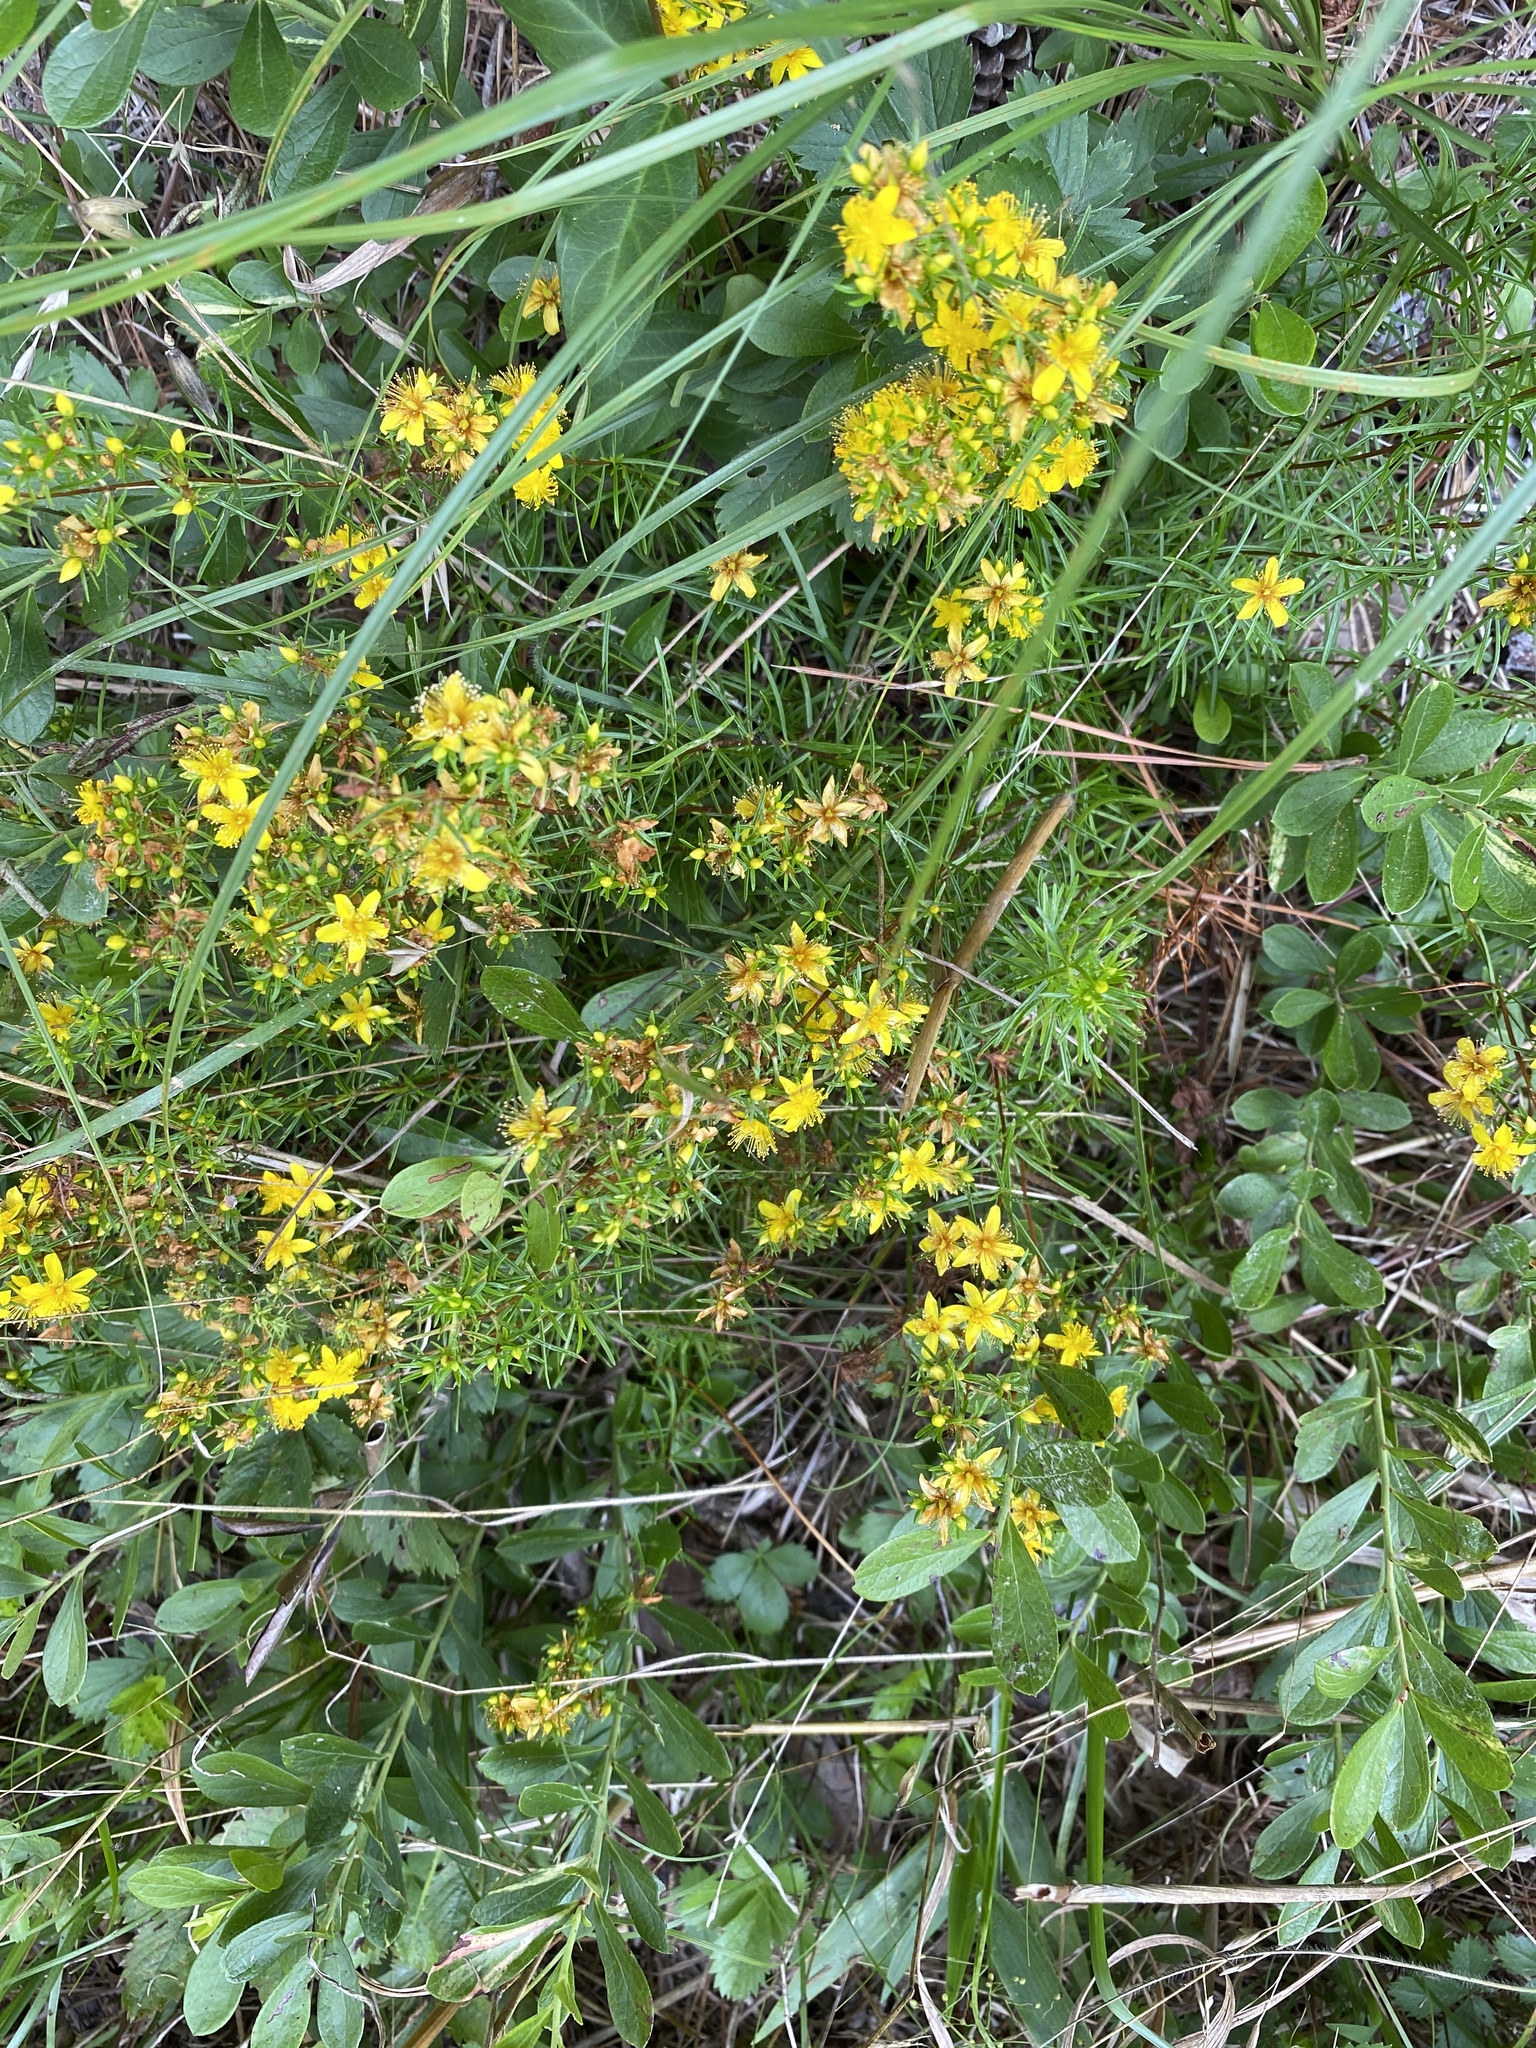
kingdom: Plantae
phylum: Tracheophyta
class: Magnoliopsida
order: Malpighiales
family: Hypericaceae
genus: Hypericum
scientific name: Hypericum lloydii
